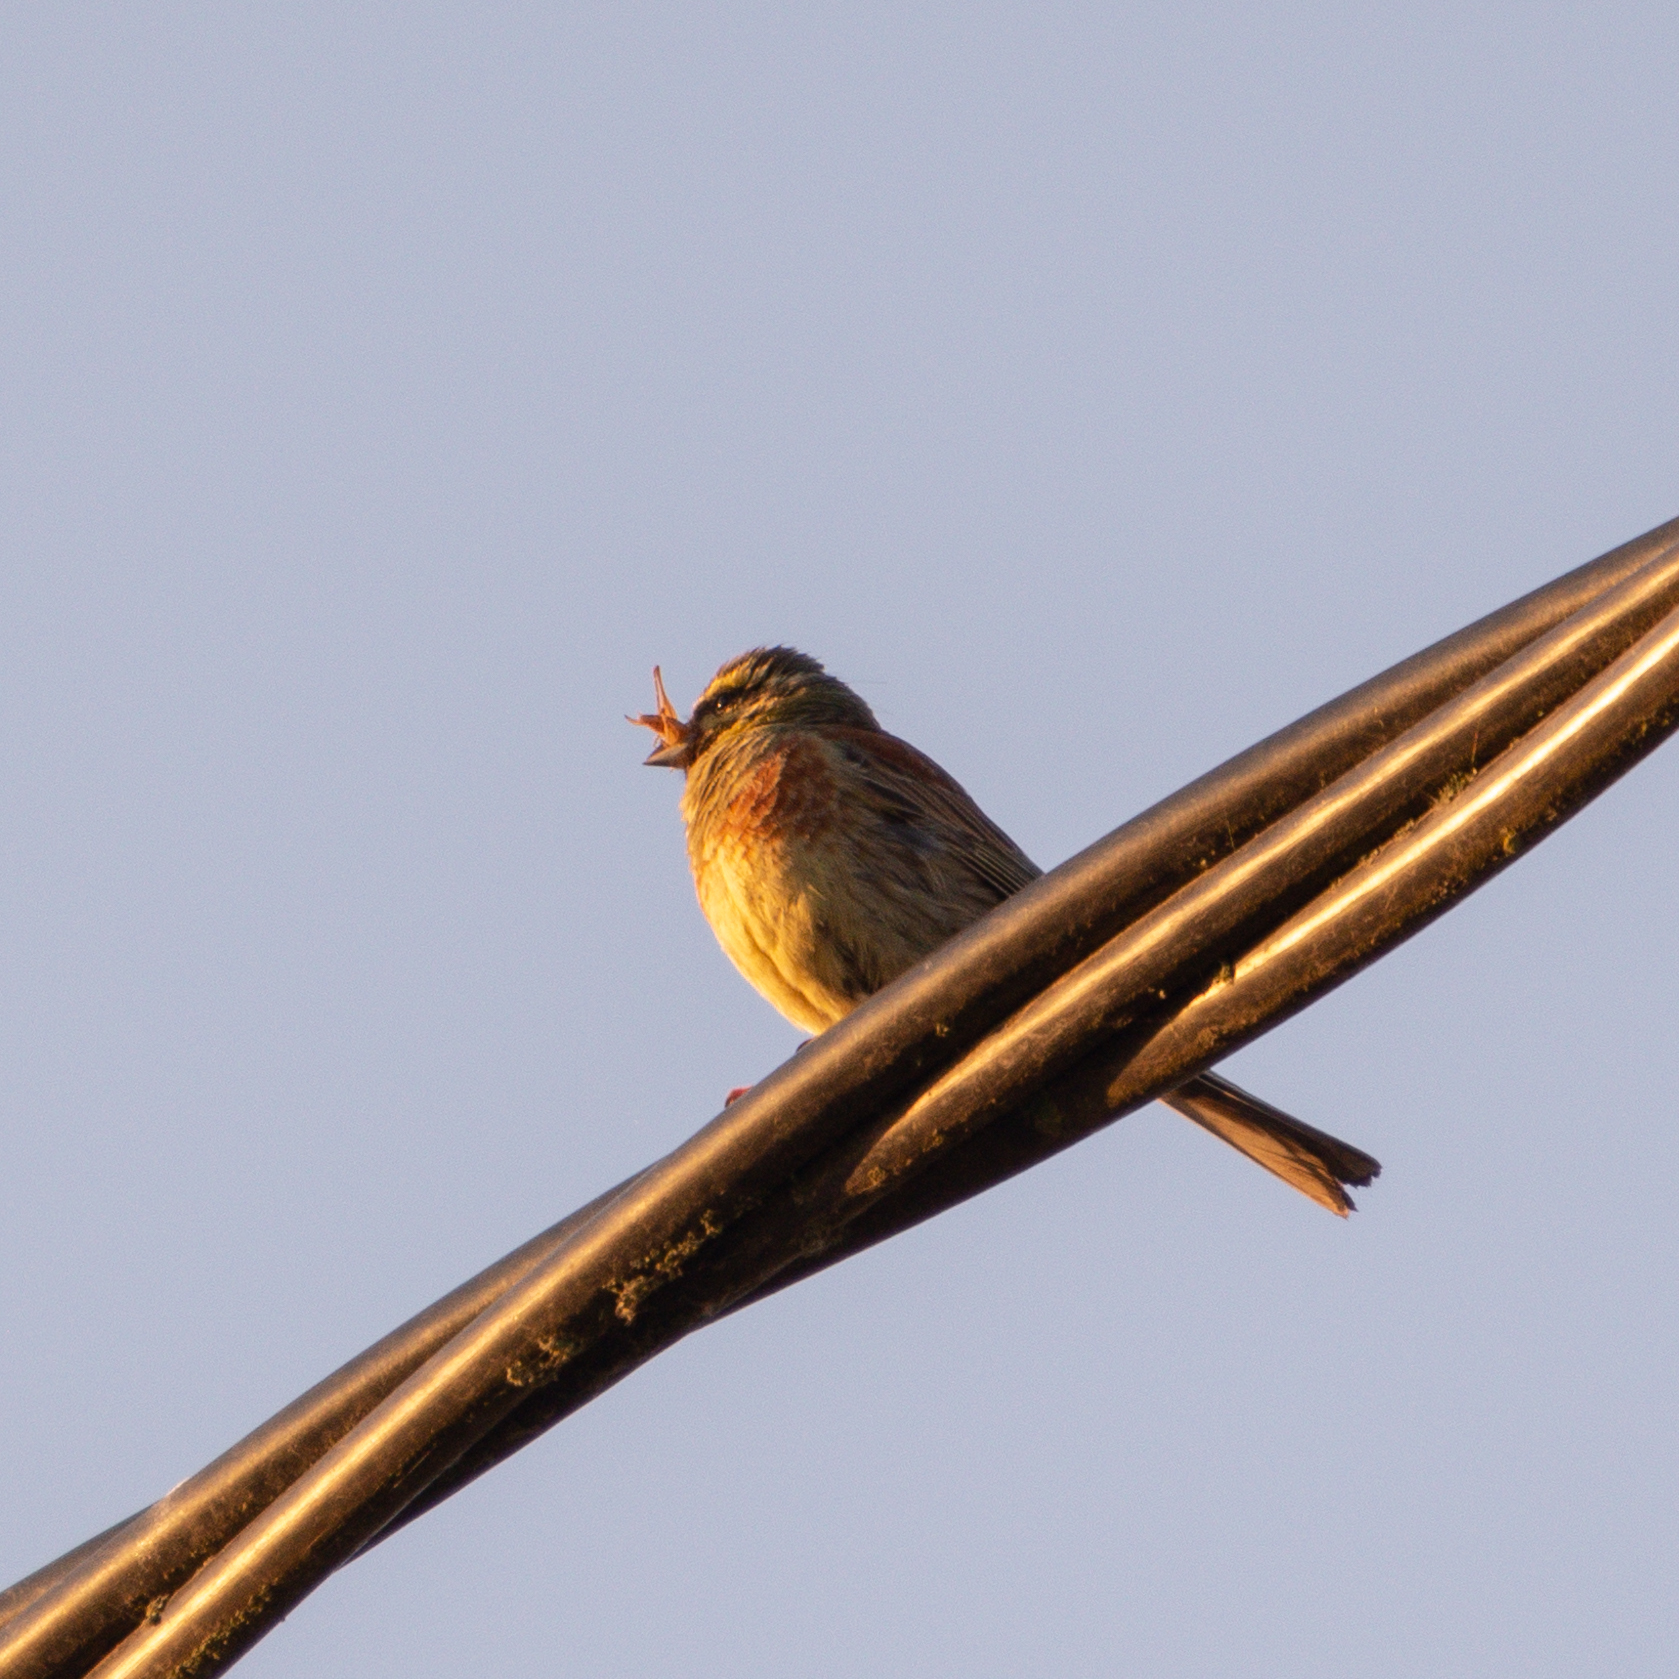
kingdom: Animalia
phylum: Chordata
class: Aves
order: Passeriformes
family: Emberizidae
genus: Emberiza
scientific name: Emberiza cirlus
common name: Cirl bunting
